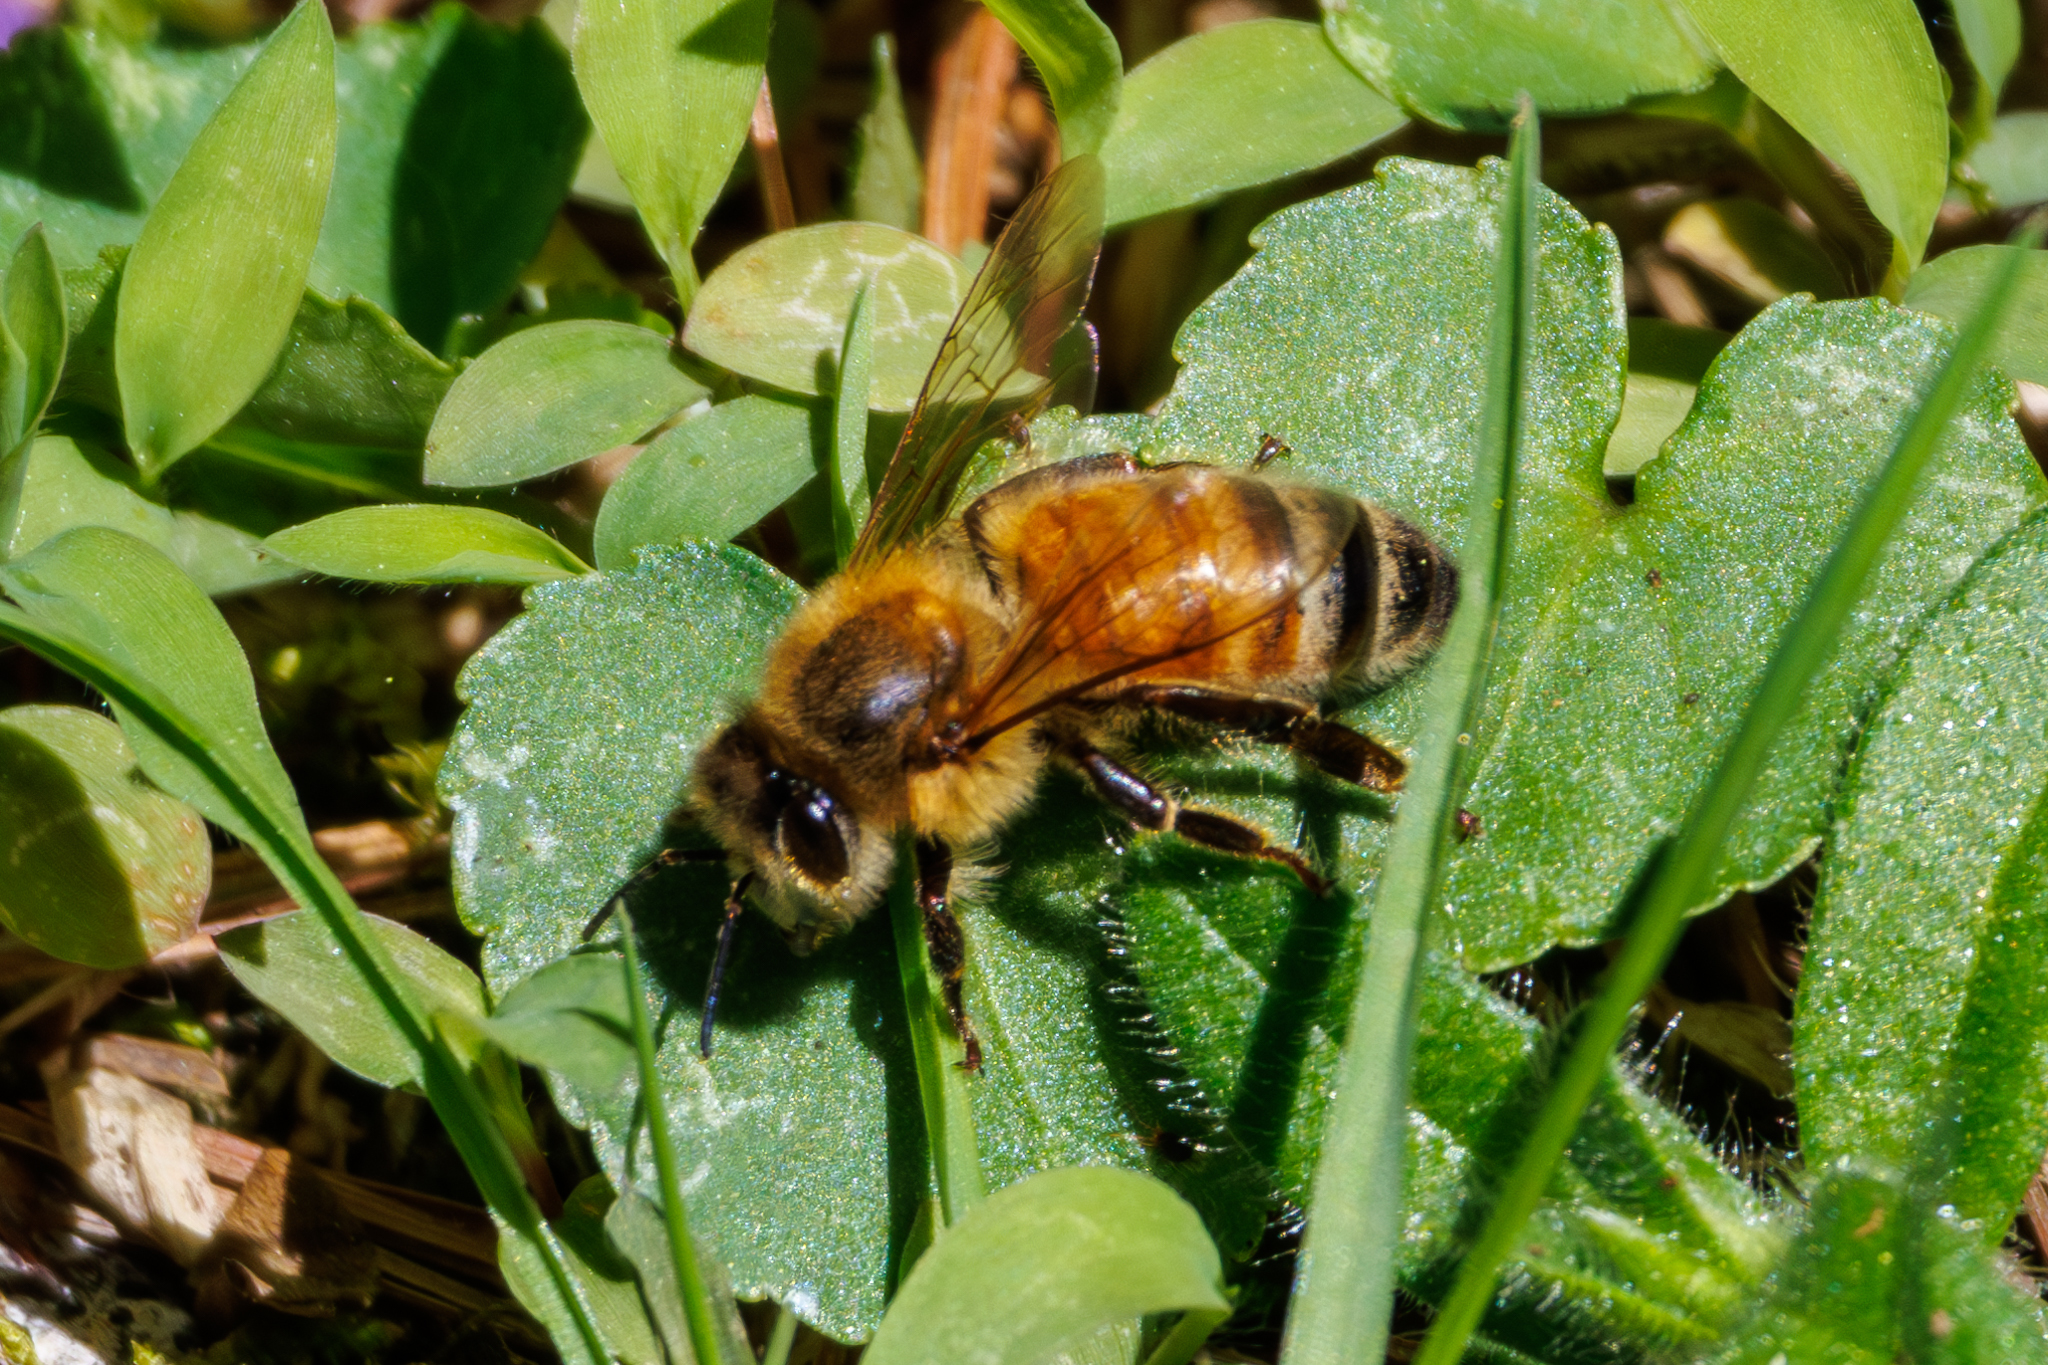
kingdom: Animalia
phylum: Arthropoda
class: Insecta
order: Hymenoptera
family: Apidae
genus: Apis
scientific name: Apis mellifera
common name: Honey bee
